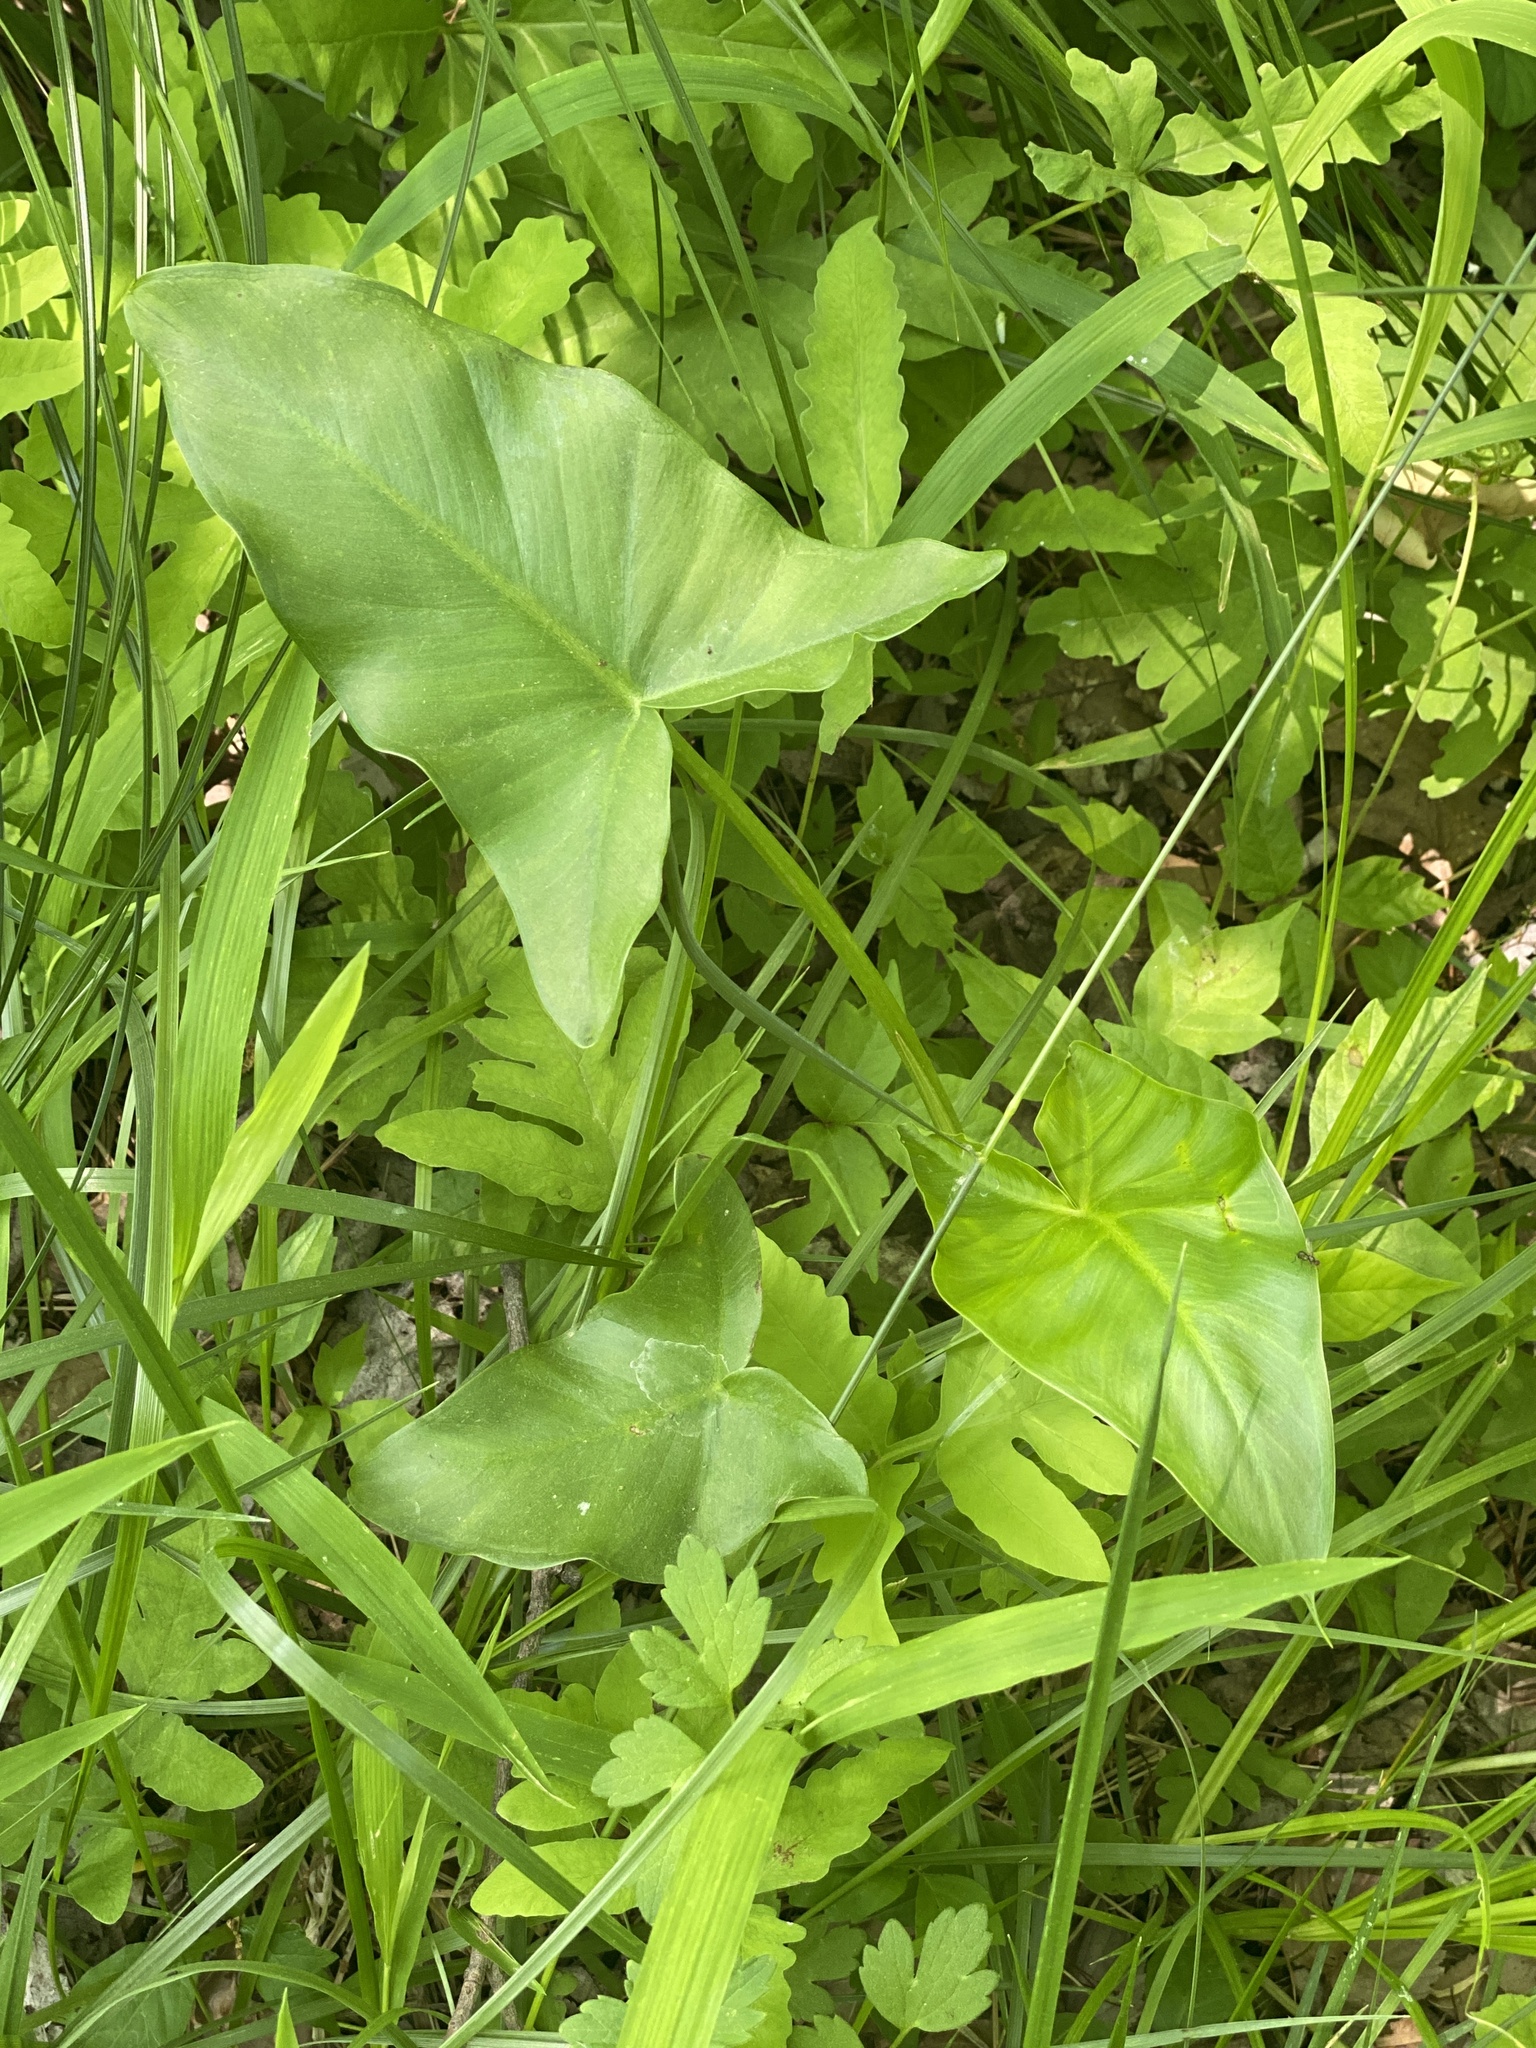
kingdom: Plantae
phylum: Tracheophyta
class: Liliopsida
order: Alismatales
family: Araceae
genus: Peltandra
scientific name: Peltandra virginica
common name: Arrow arum
